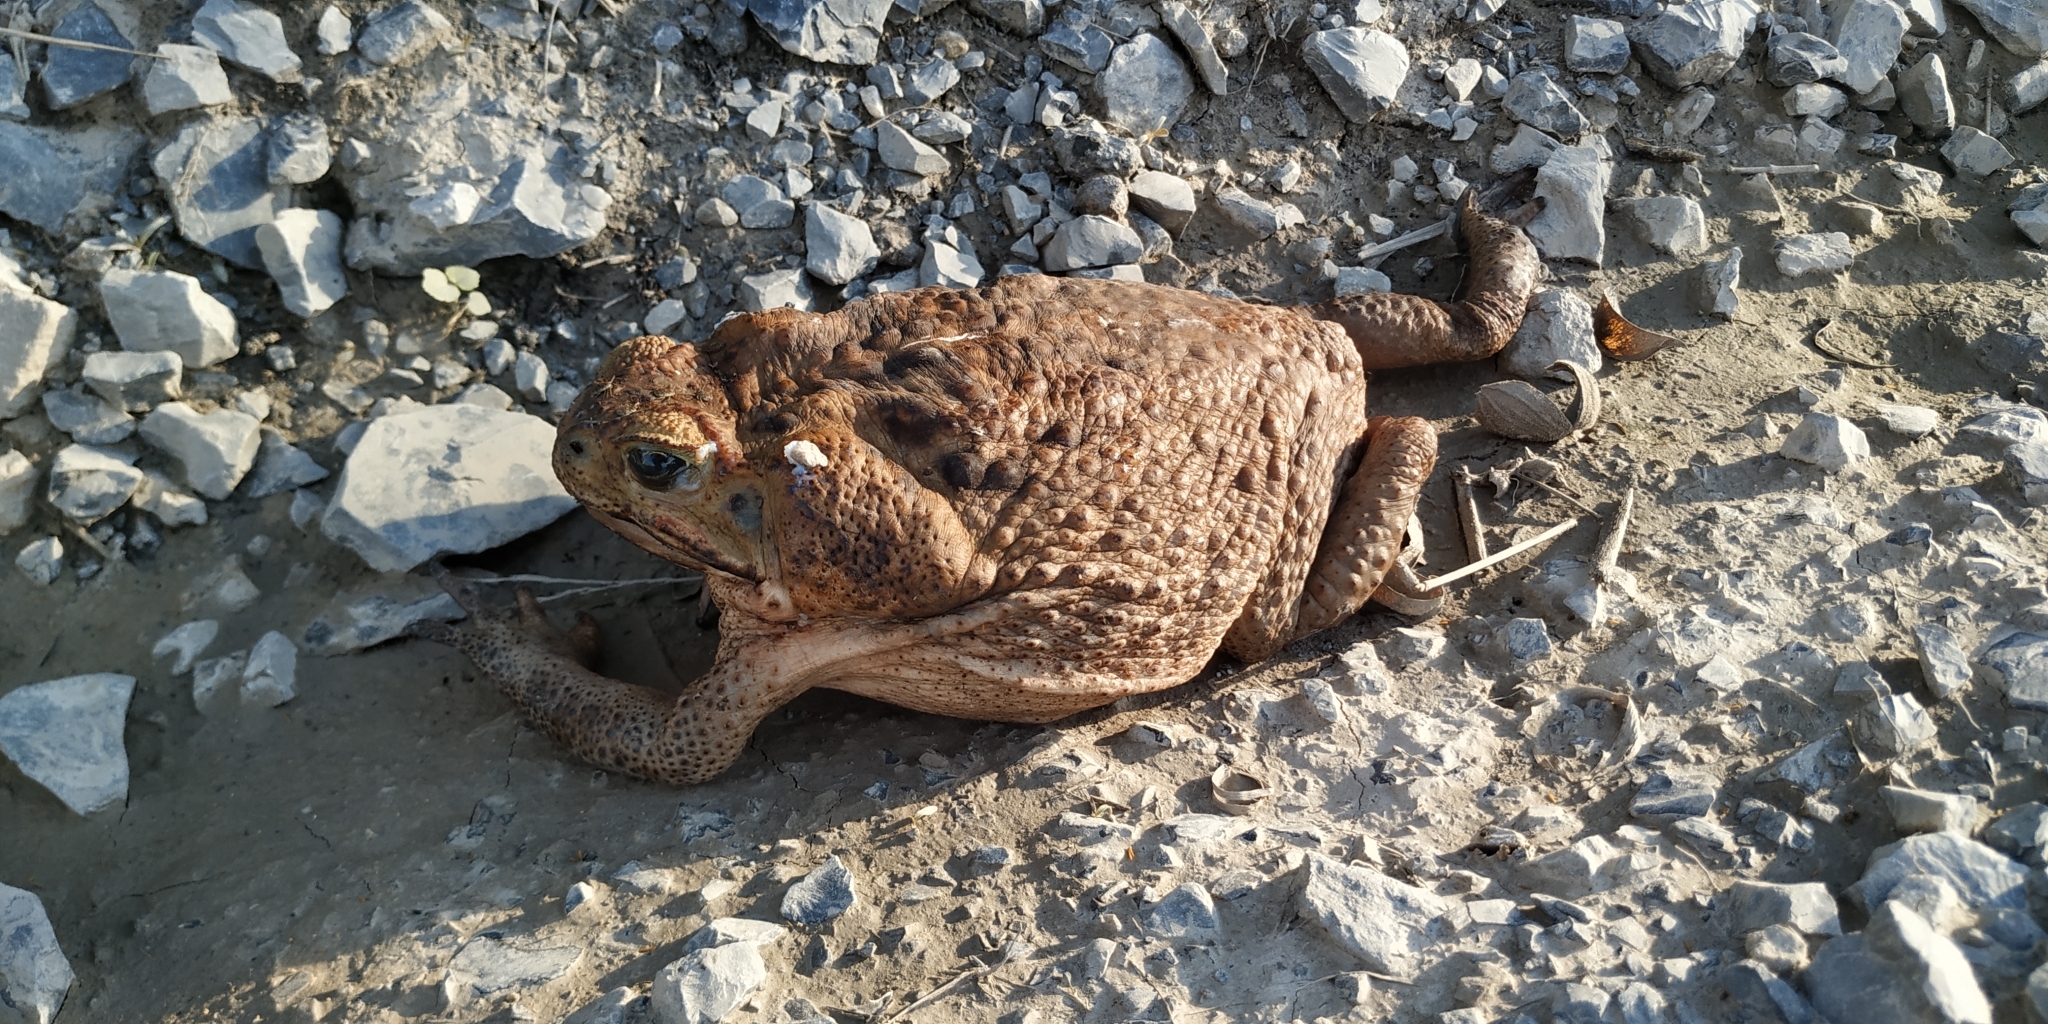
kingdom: Animalia
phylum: Chordata
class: Amphibia
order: Anura
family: Bufonidae
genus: Rhinella
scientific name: Rhinella horribilis
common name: Mesoamerican cane toad
